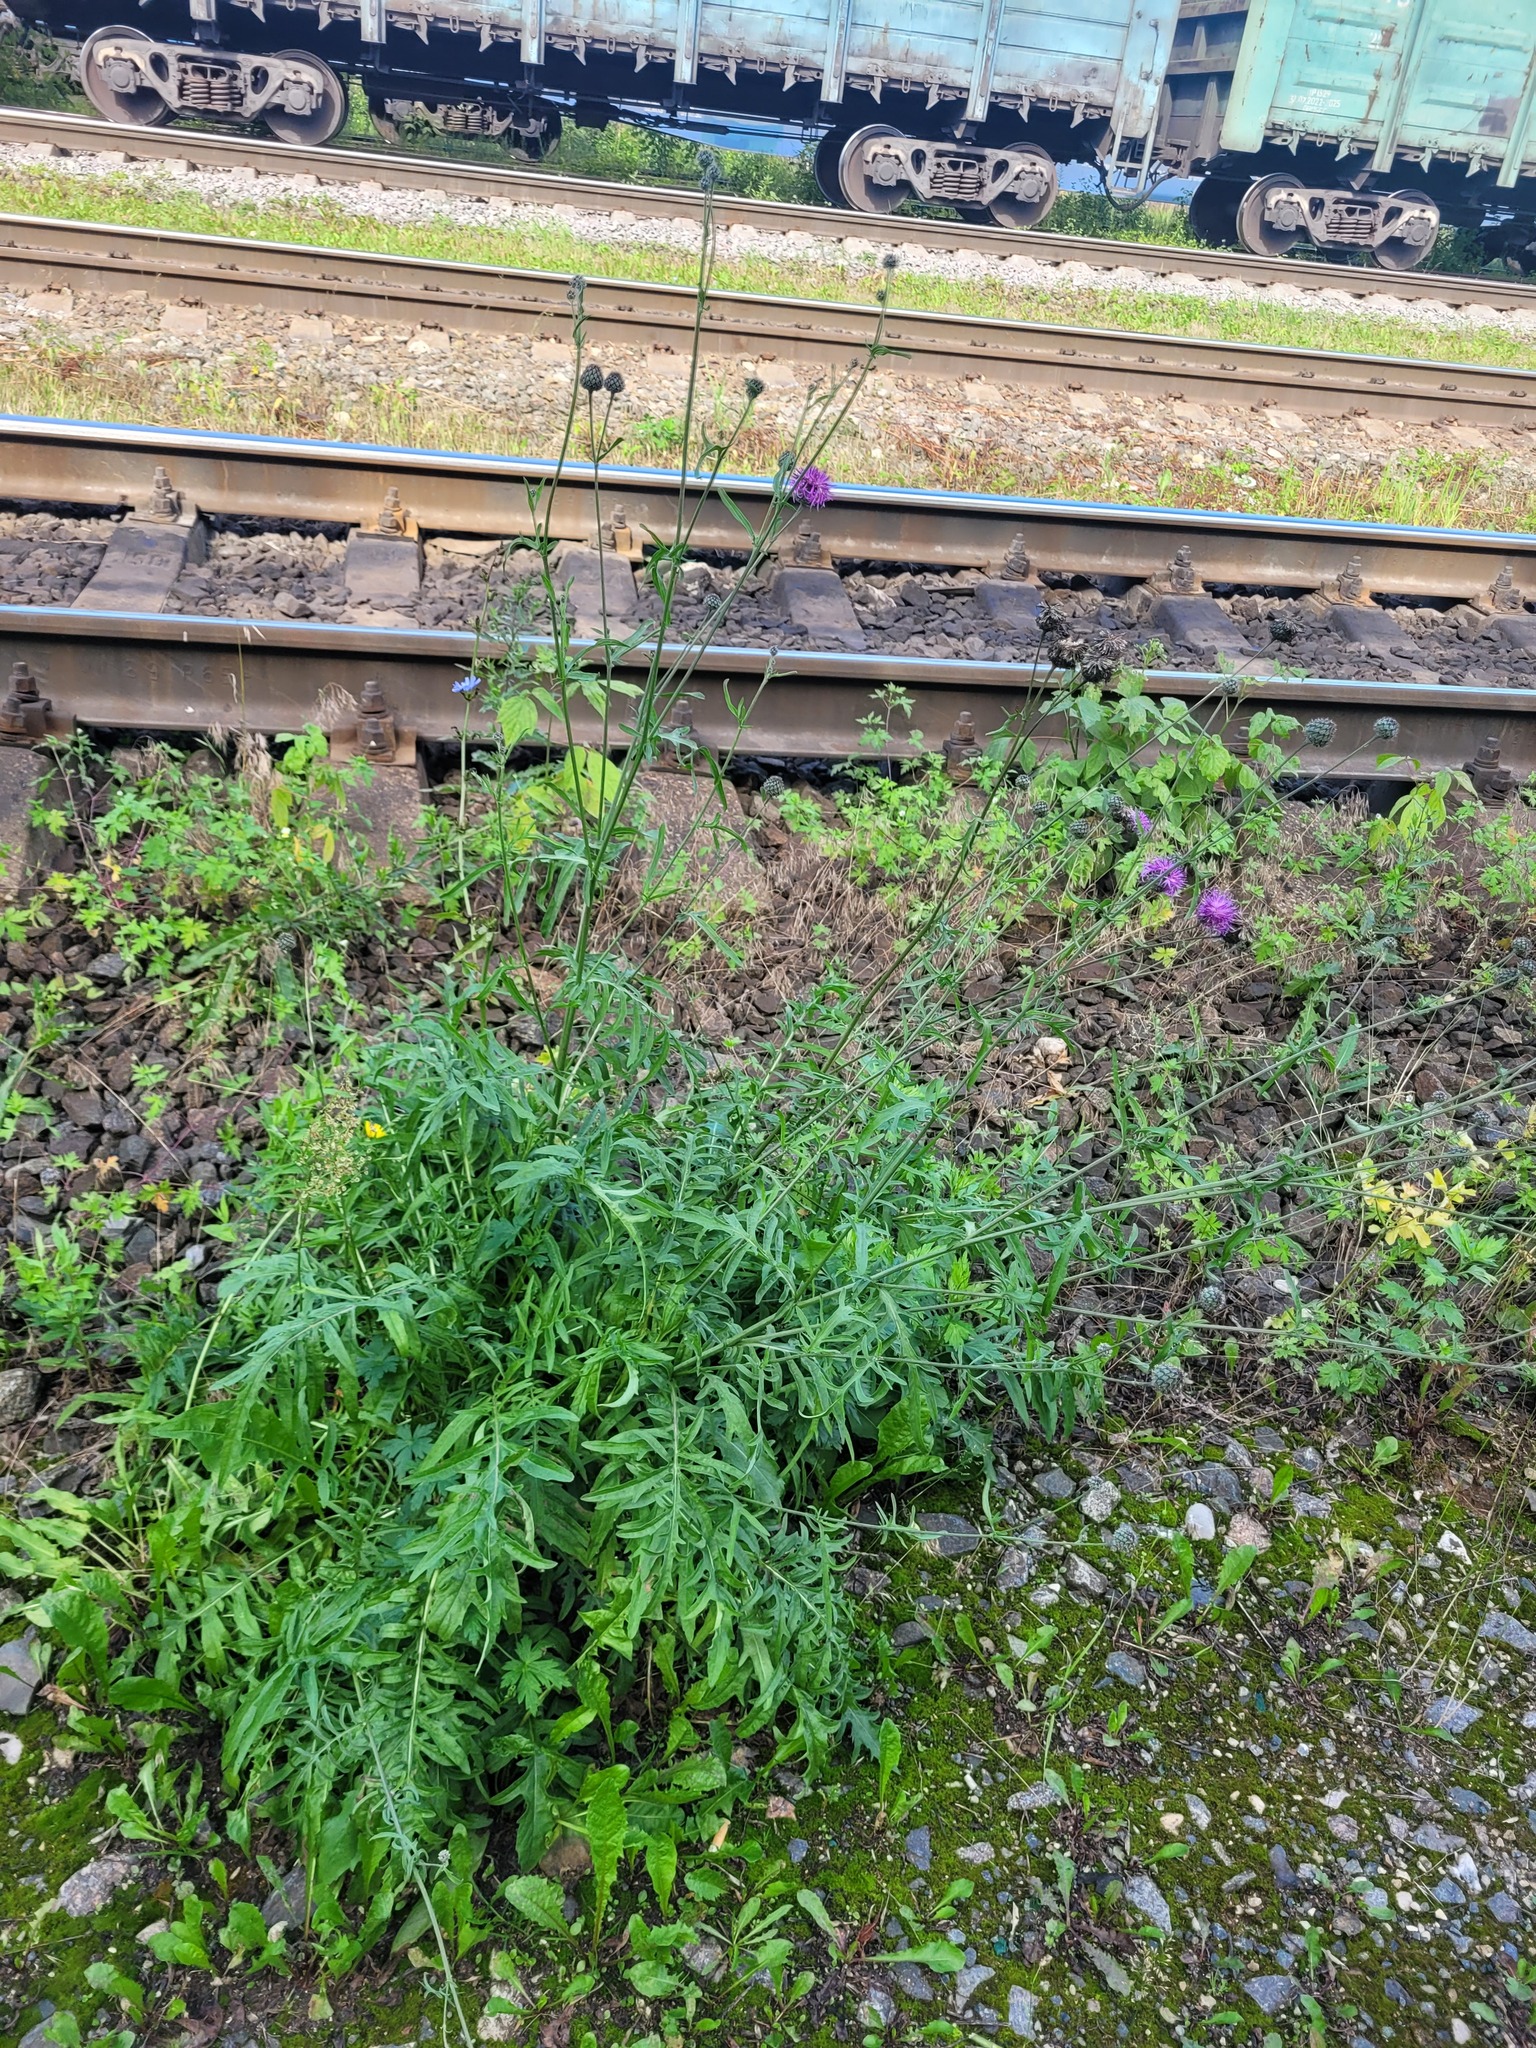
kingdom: Plantae
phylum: Tracheophyta
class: Magnoliopsida
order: Asterales
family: Asteraceae
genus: Centaurea
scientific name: Centaurea scabiosa
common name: Greater knapweed
